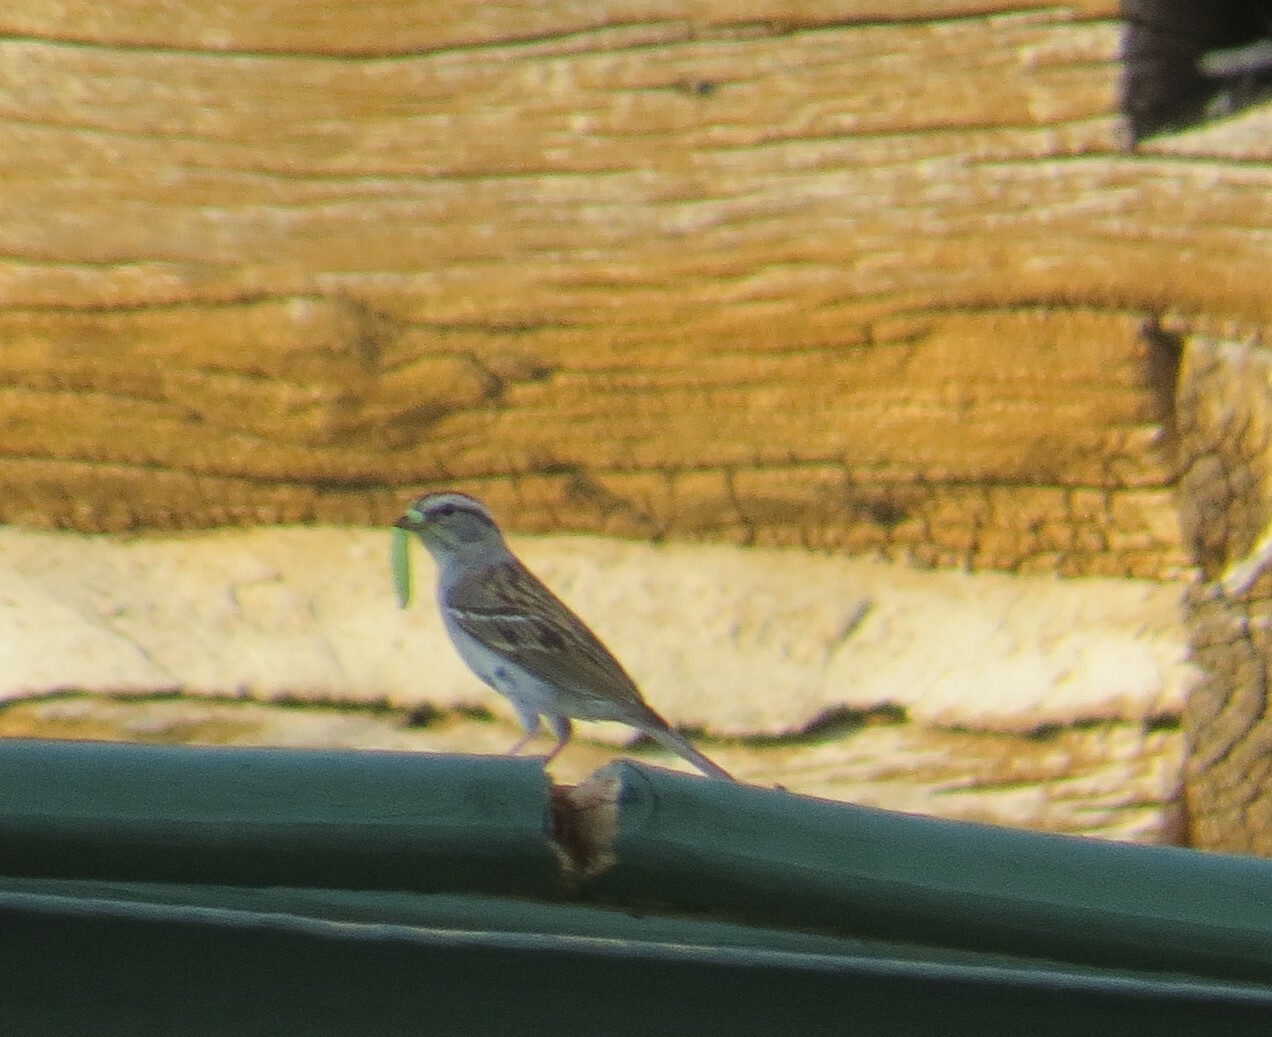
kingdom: Animalia
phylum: Chordata
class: Aves
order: Passeriformes
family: Passerellidae
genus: Spizella
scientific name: Spizella passerina
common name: Chipping sparrow
